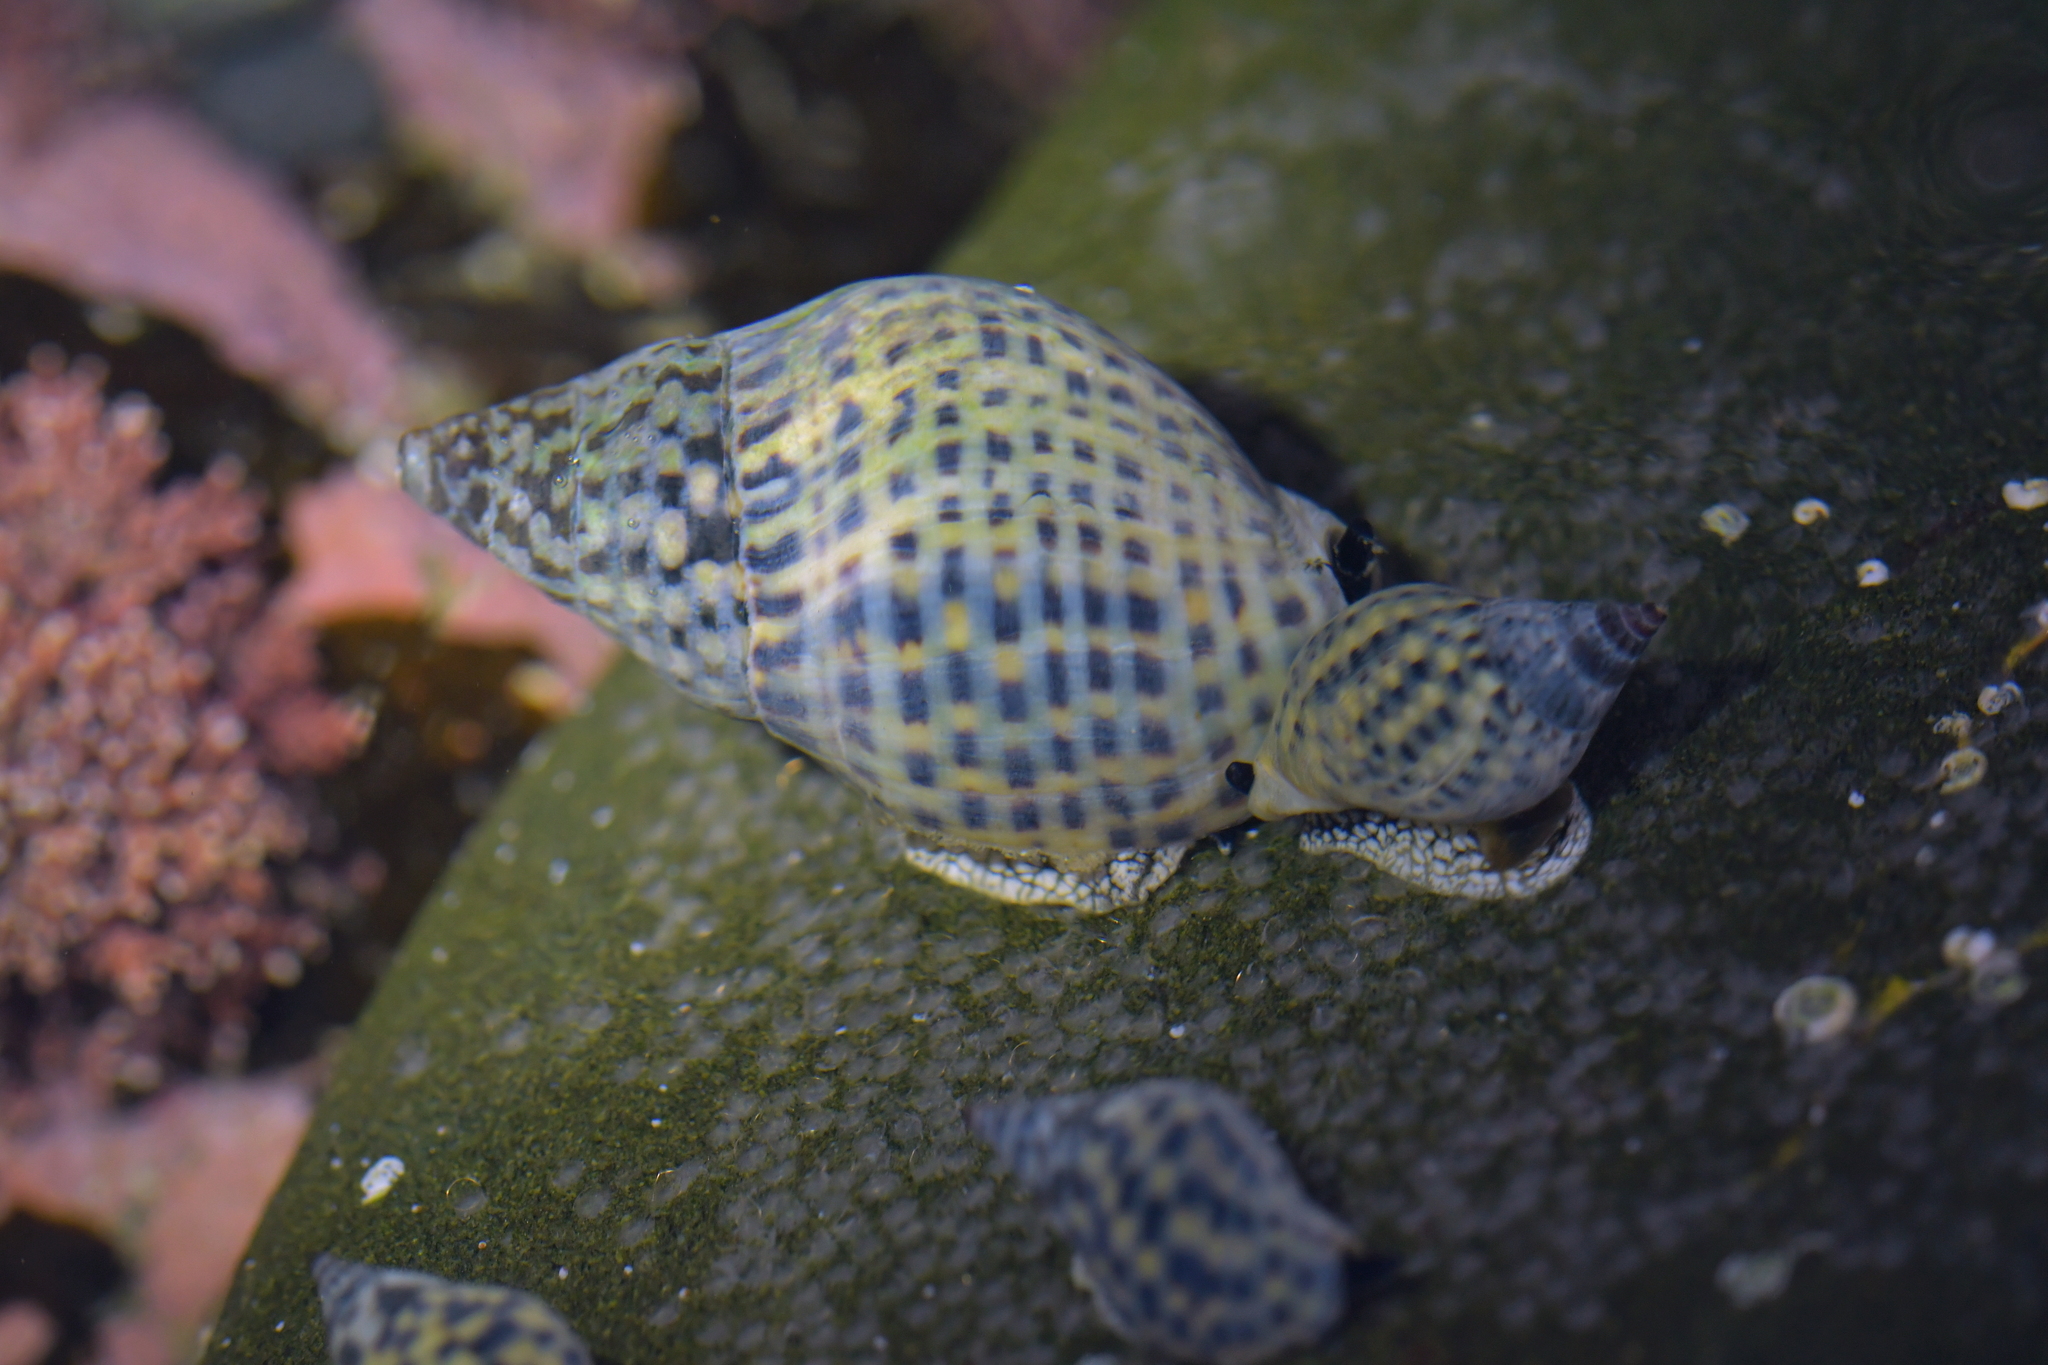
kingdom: Animalia
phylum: Mollusca
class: Gastropoda
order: Neogastropoda
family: Cominellidae
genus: Cominella
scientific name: Cominella maculosa
